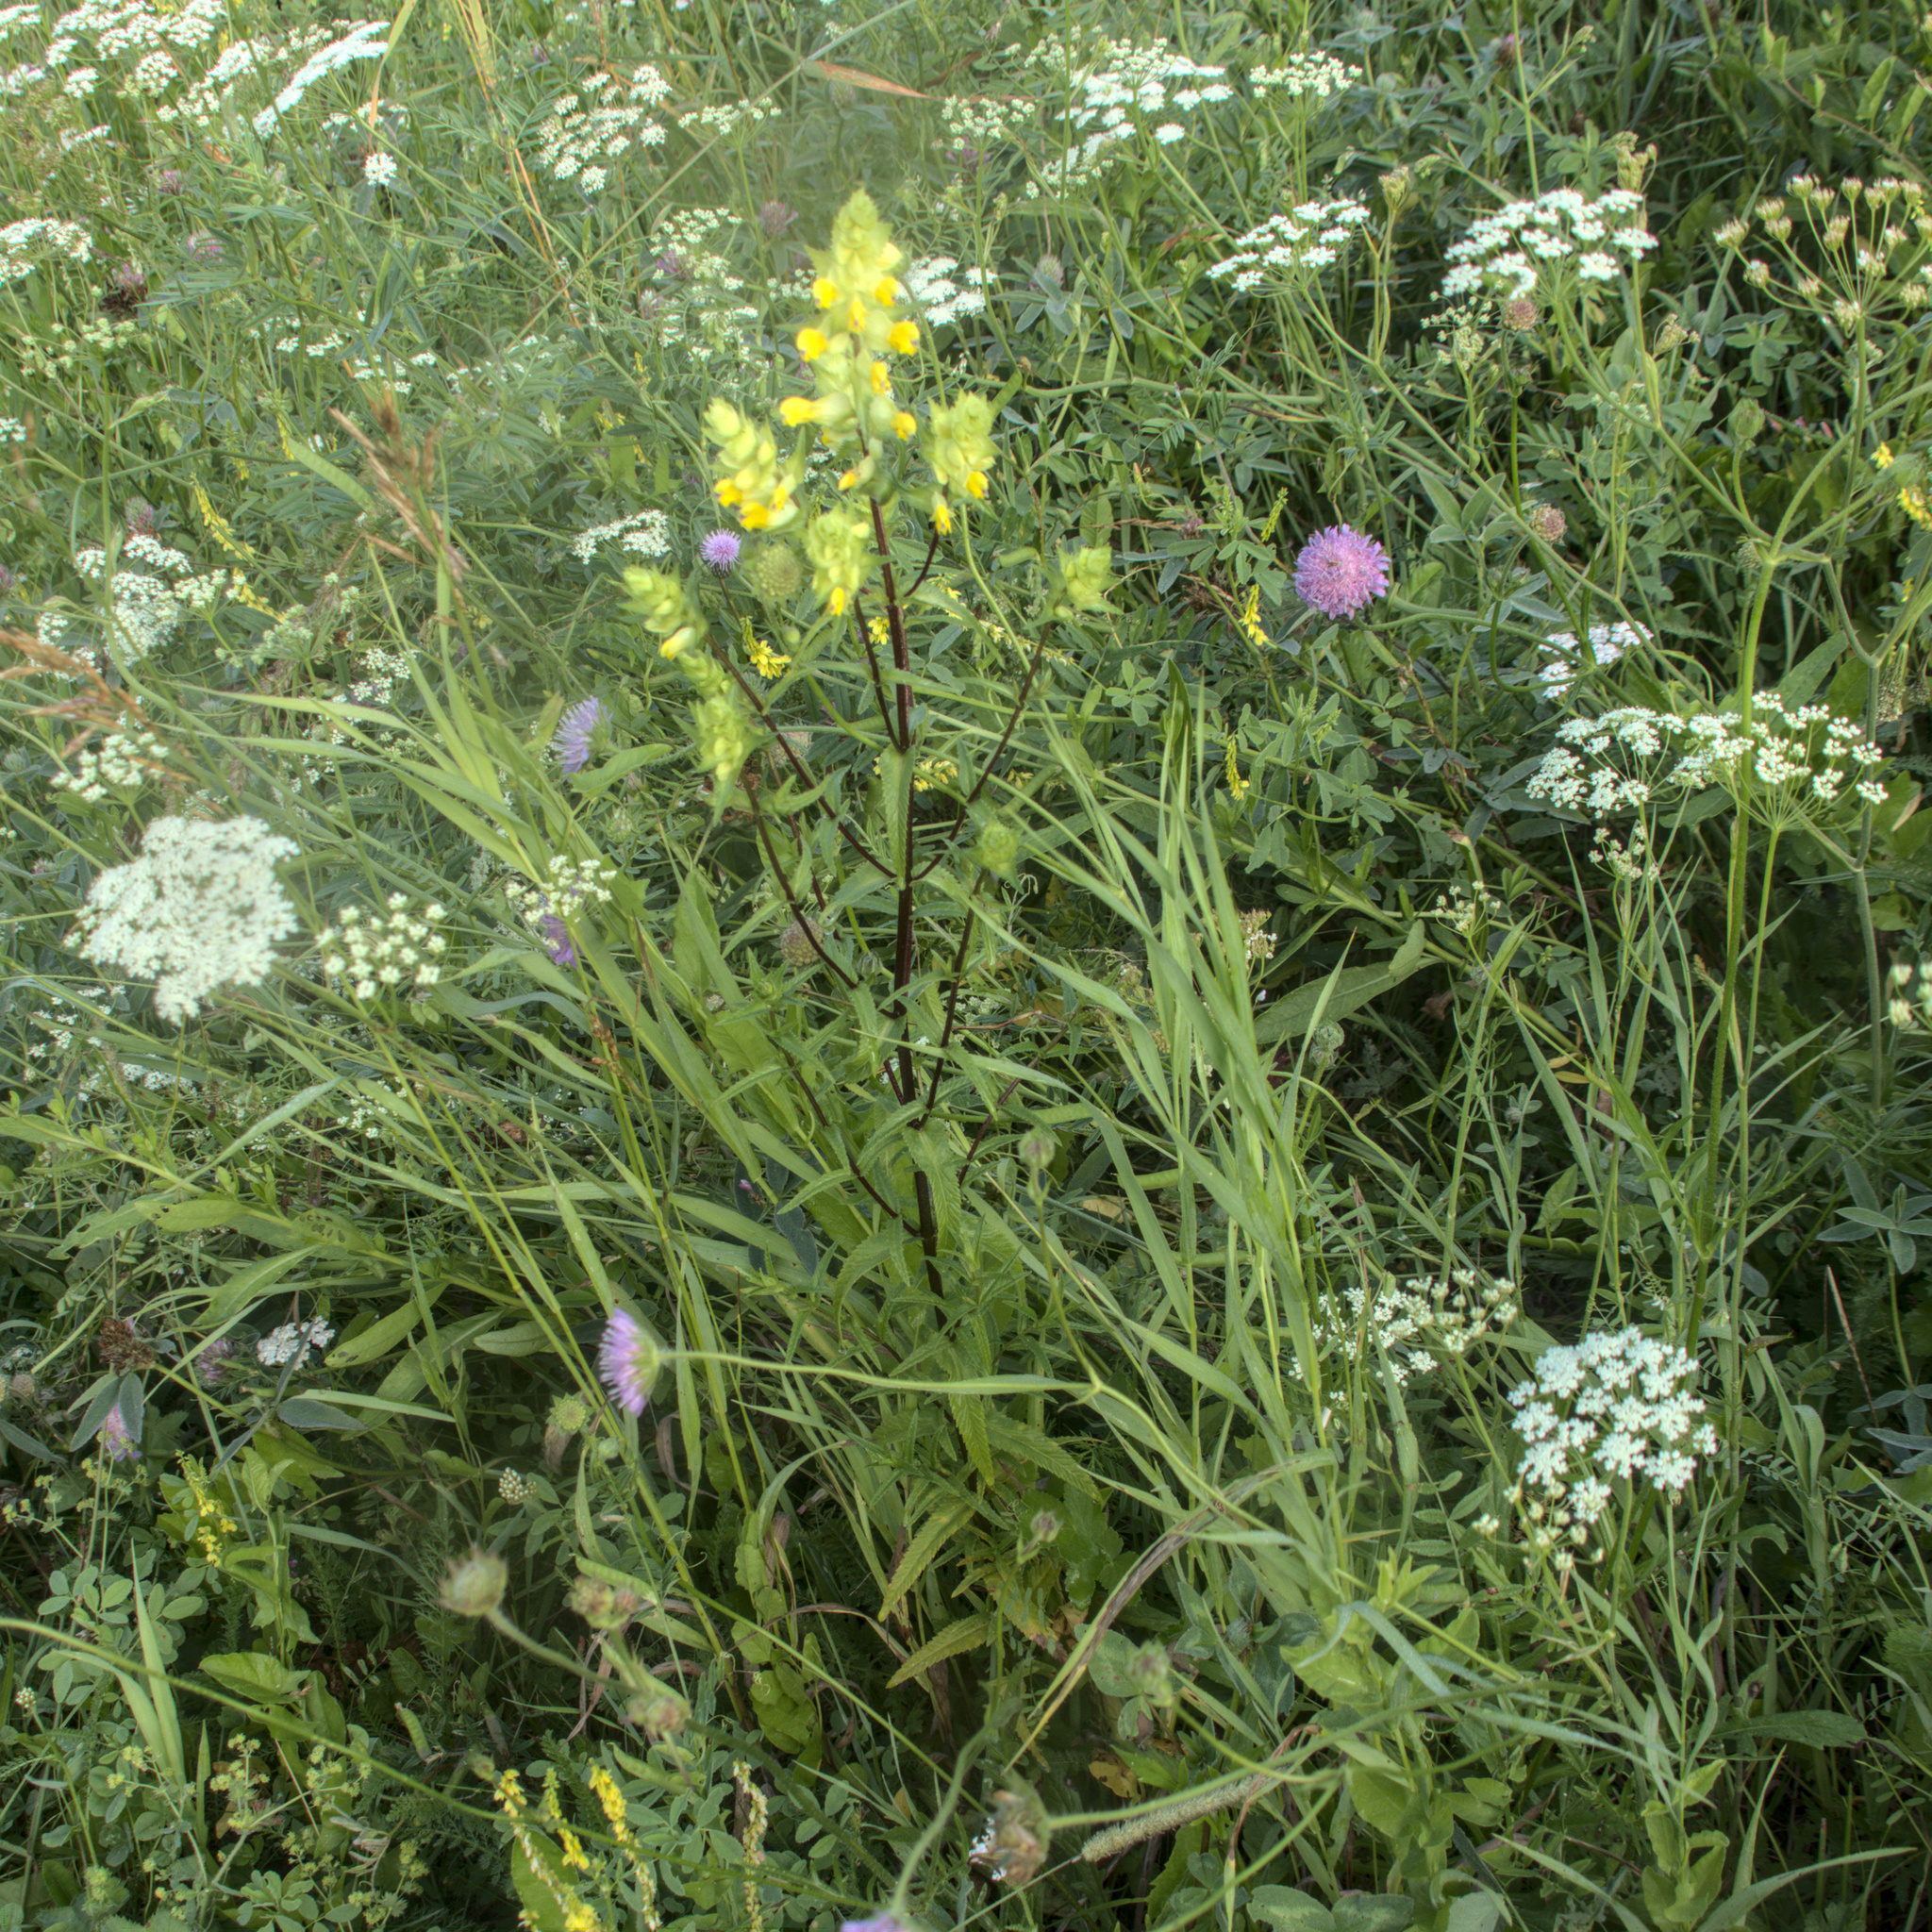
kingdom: Plantae
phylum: Tracheophyta
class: Magnoliopsida
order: Lamiales
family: Orobanchaceae
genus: Rhinanthus
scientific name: Rhinanthus serotinus
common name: Late-flowering yellow rattle
